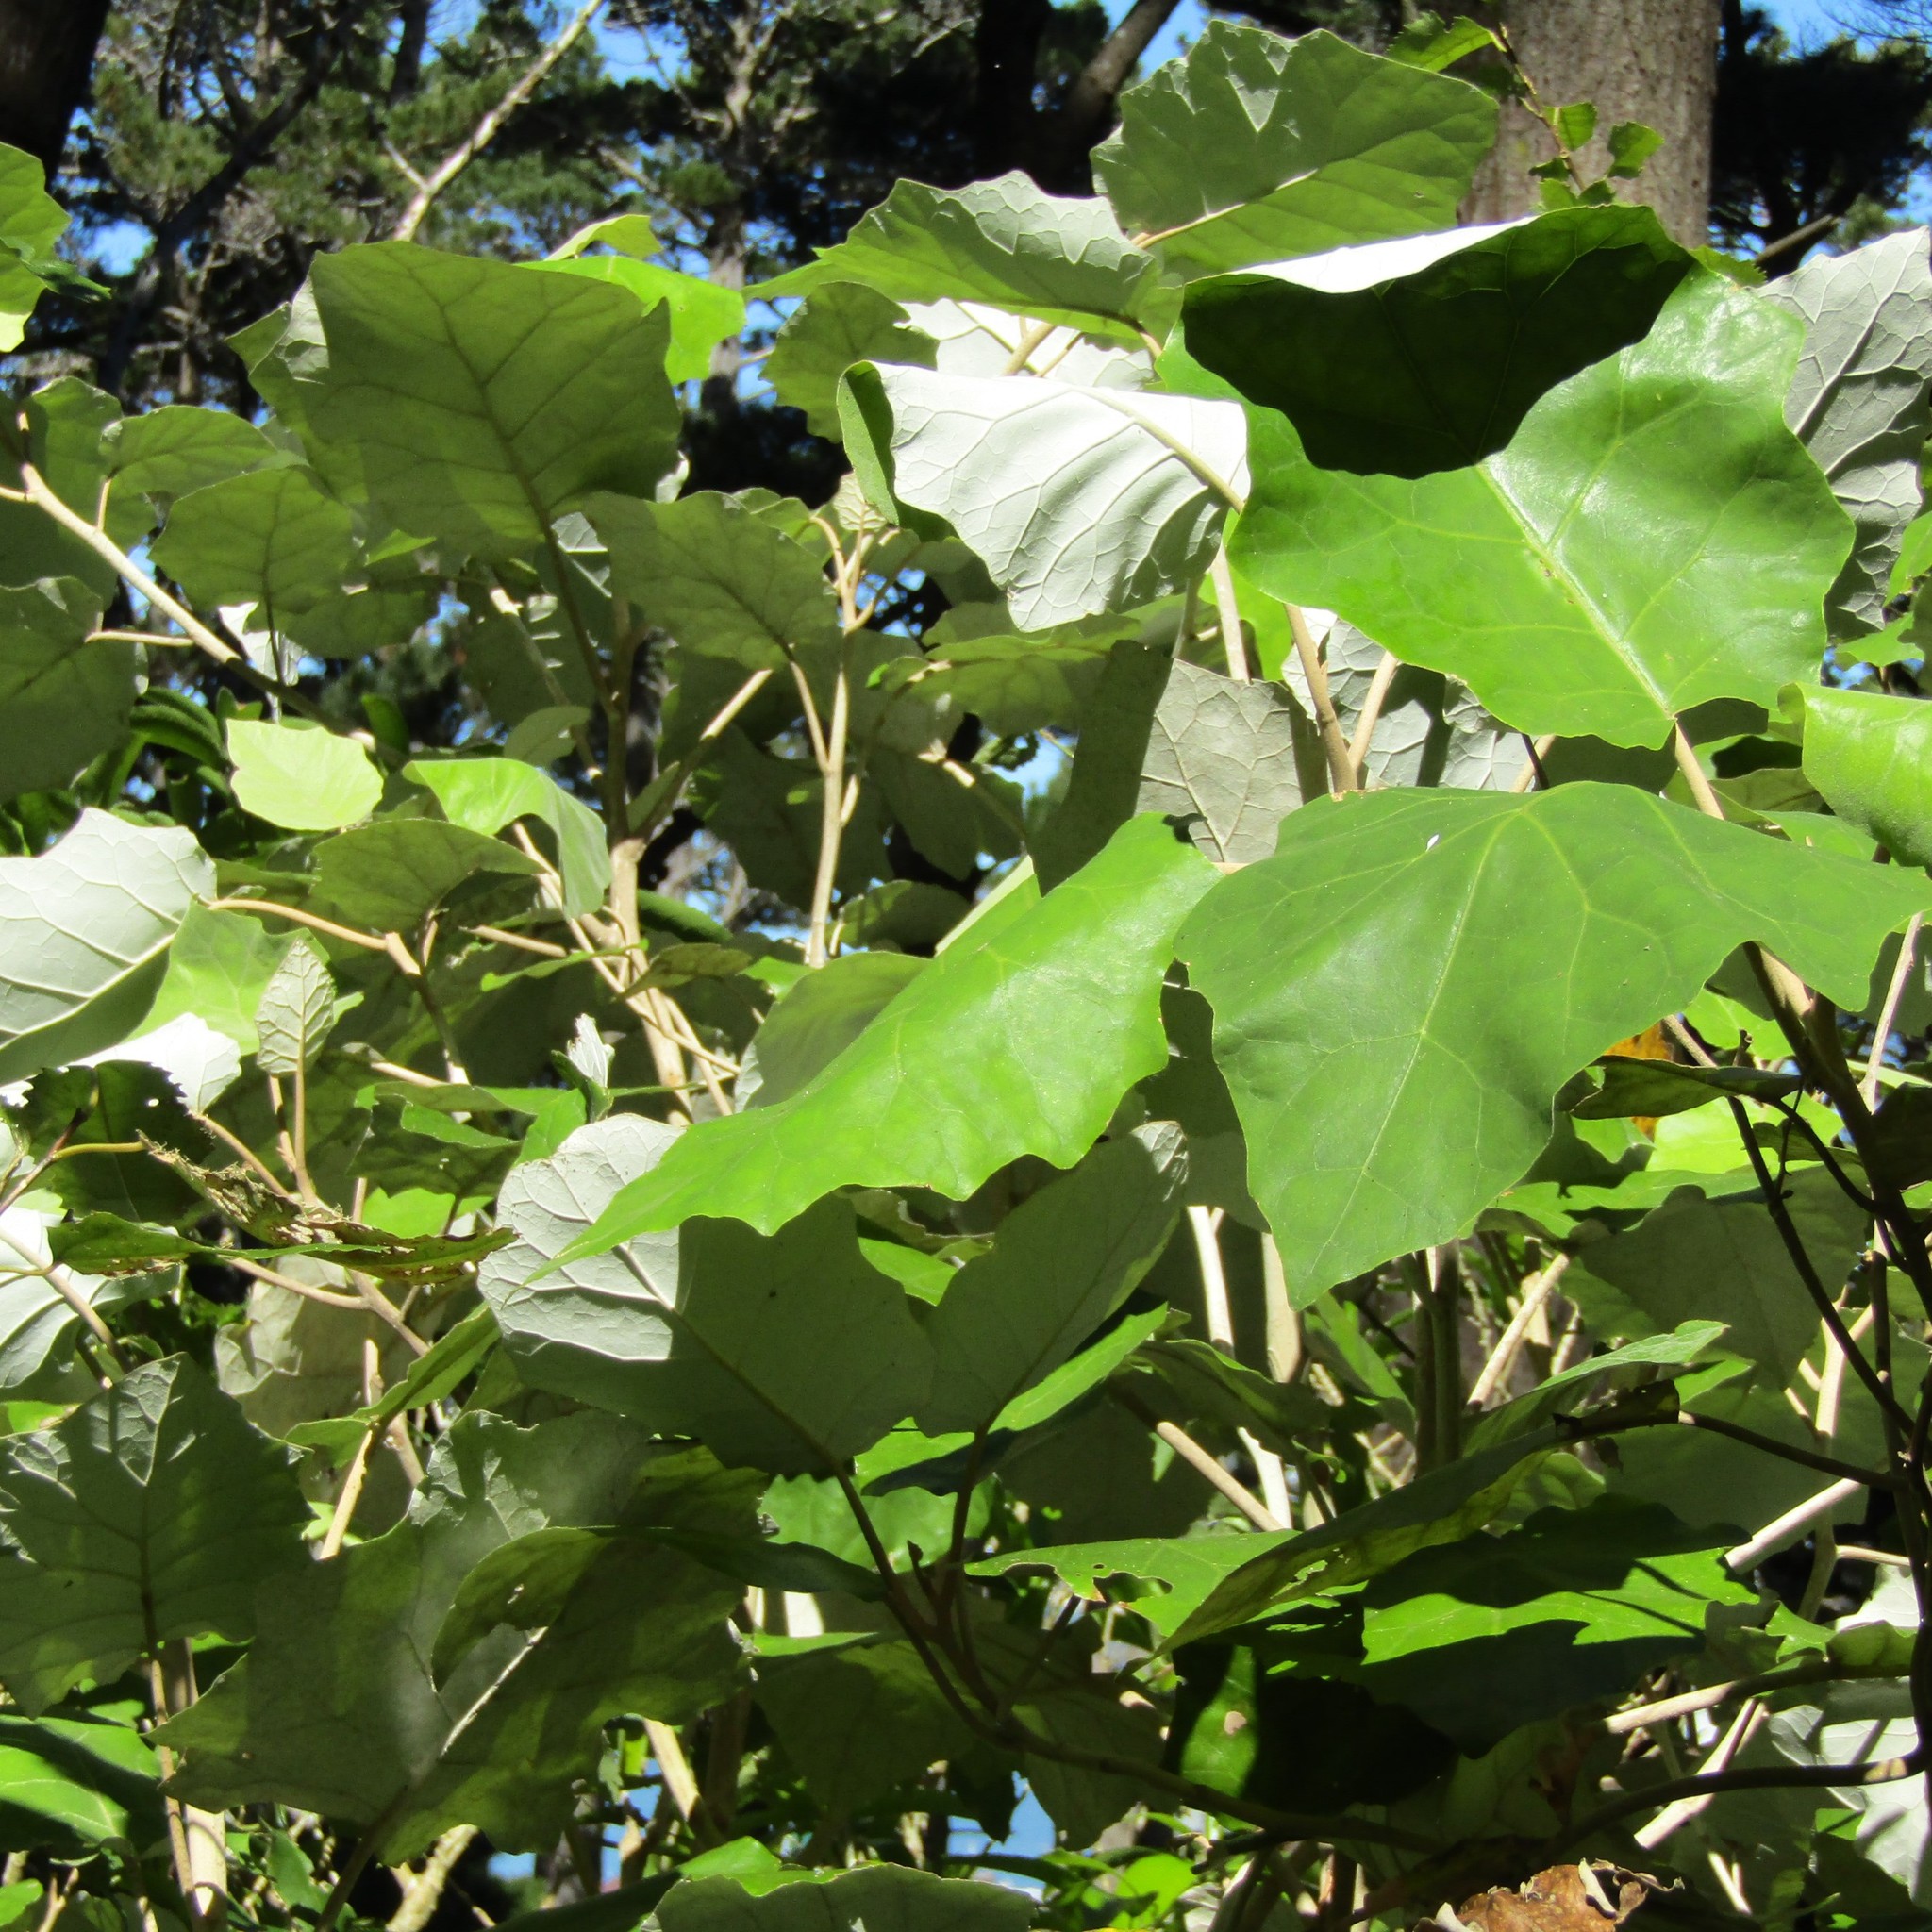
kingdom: Plantae
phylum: Tracheophyta
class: Magnoliopsida
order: Asterales
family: Asteraceae
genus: Brachyglottis
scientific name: Brachyglottis repanda
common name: Hedge ragwort
